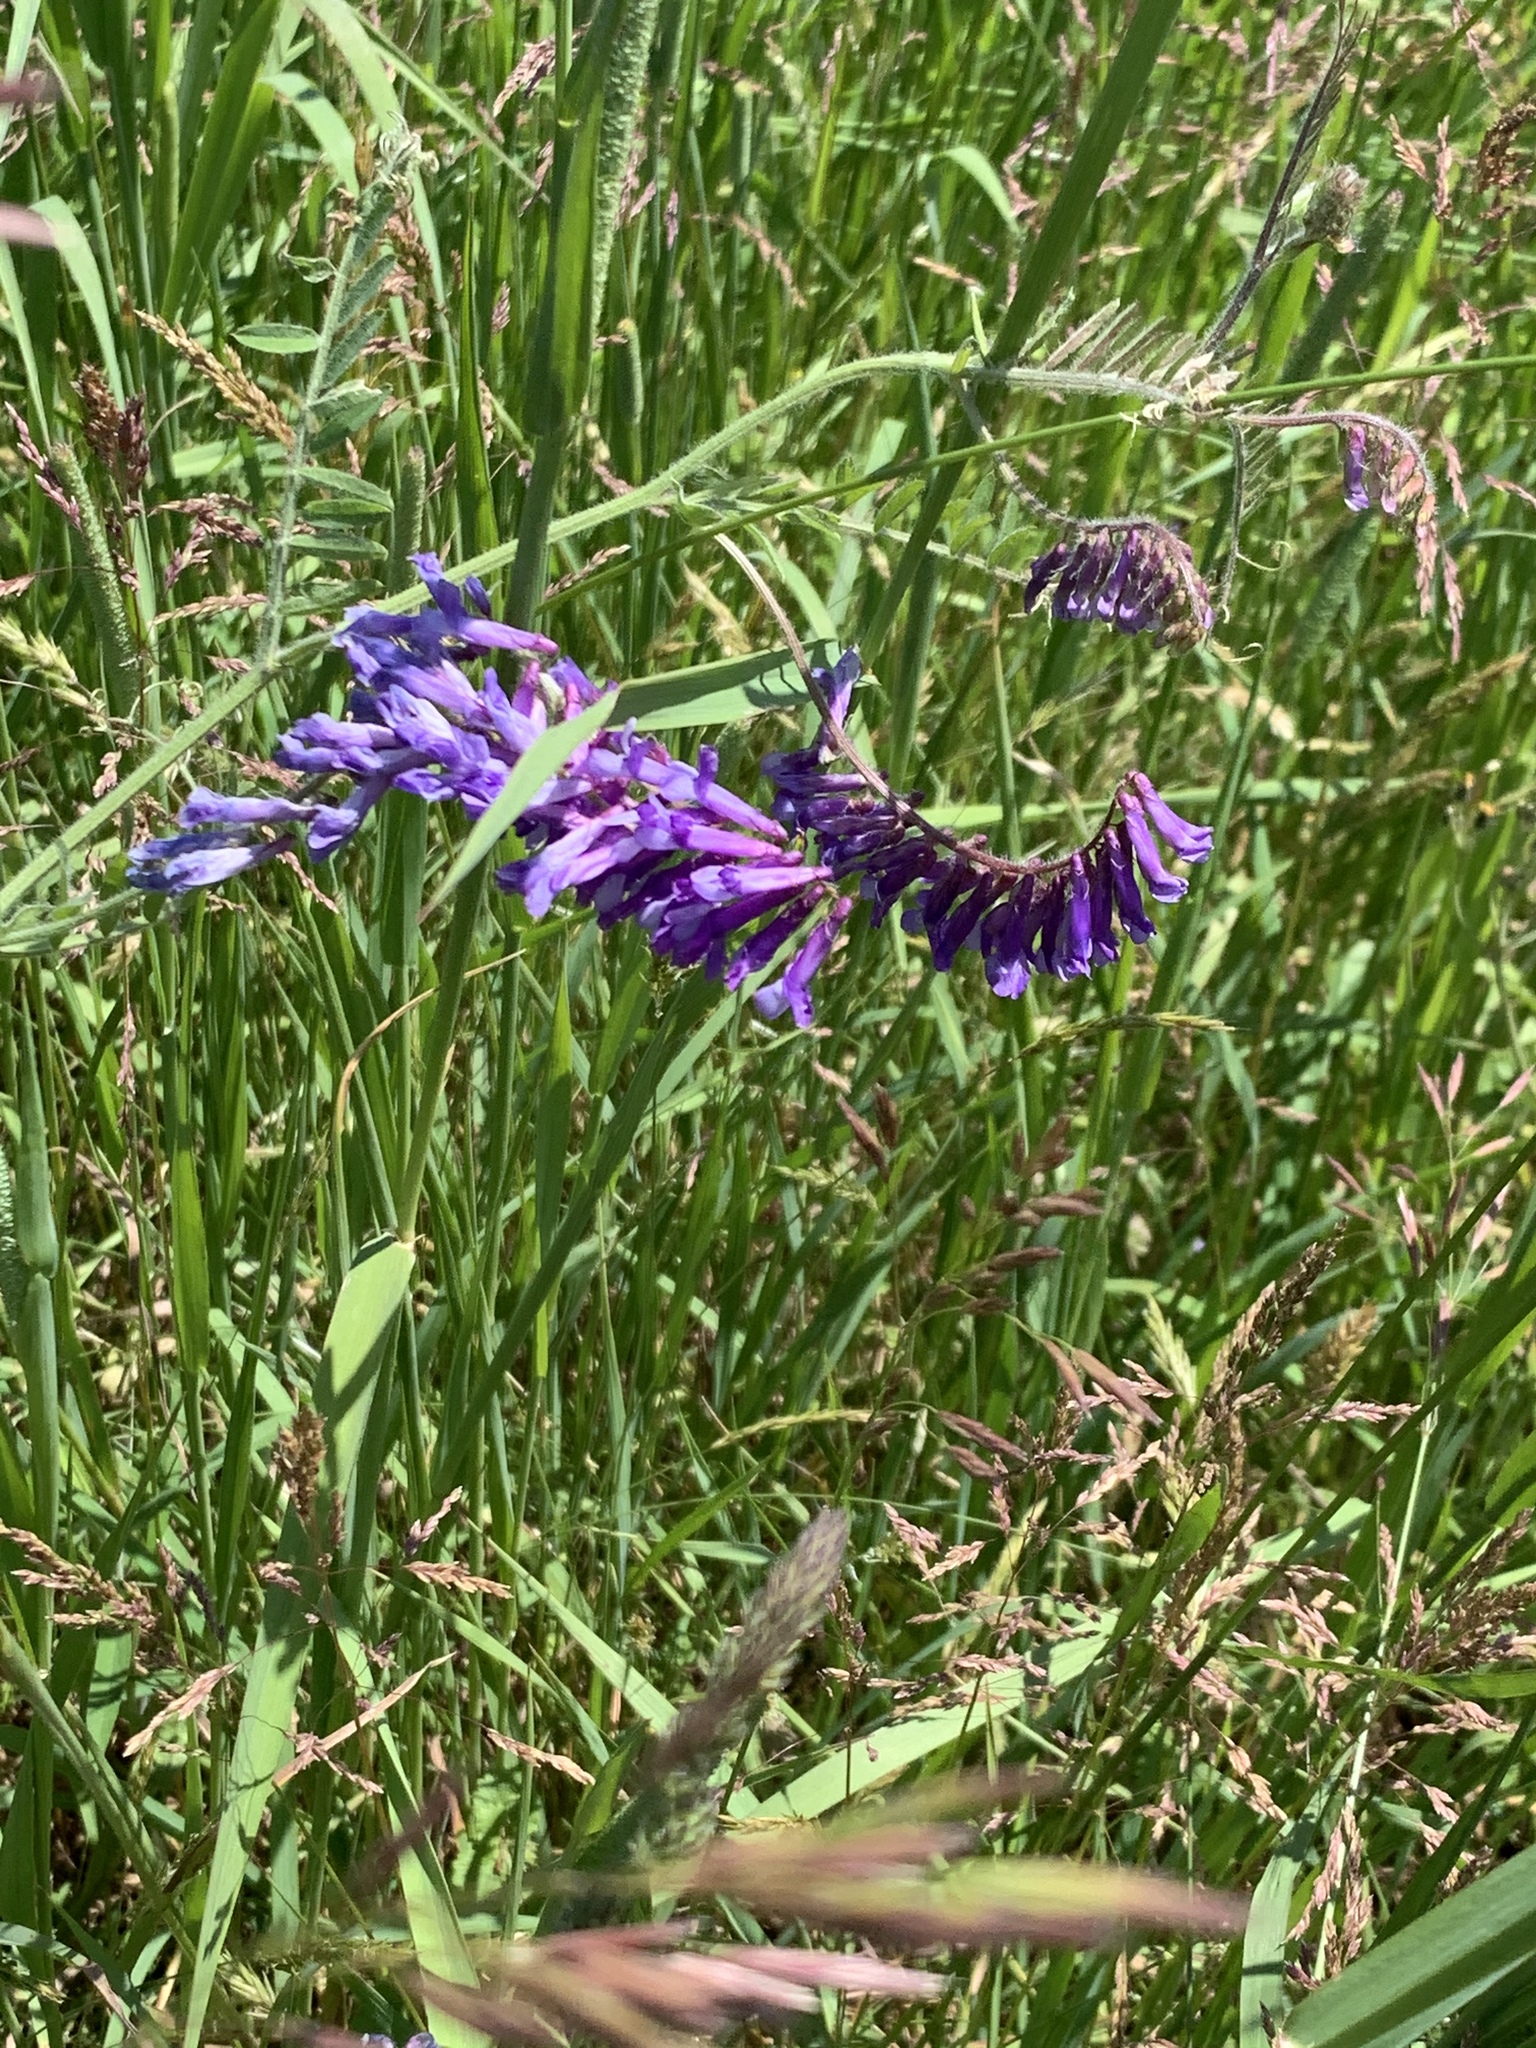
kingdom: Plantae
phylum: Tracheophyta
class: Magnoliopsida
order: Fabales
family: Fabaceae
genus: Vicia
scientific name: Vicia villosa
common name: Fodder vetch
